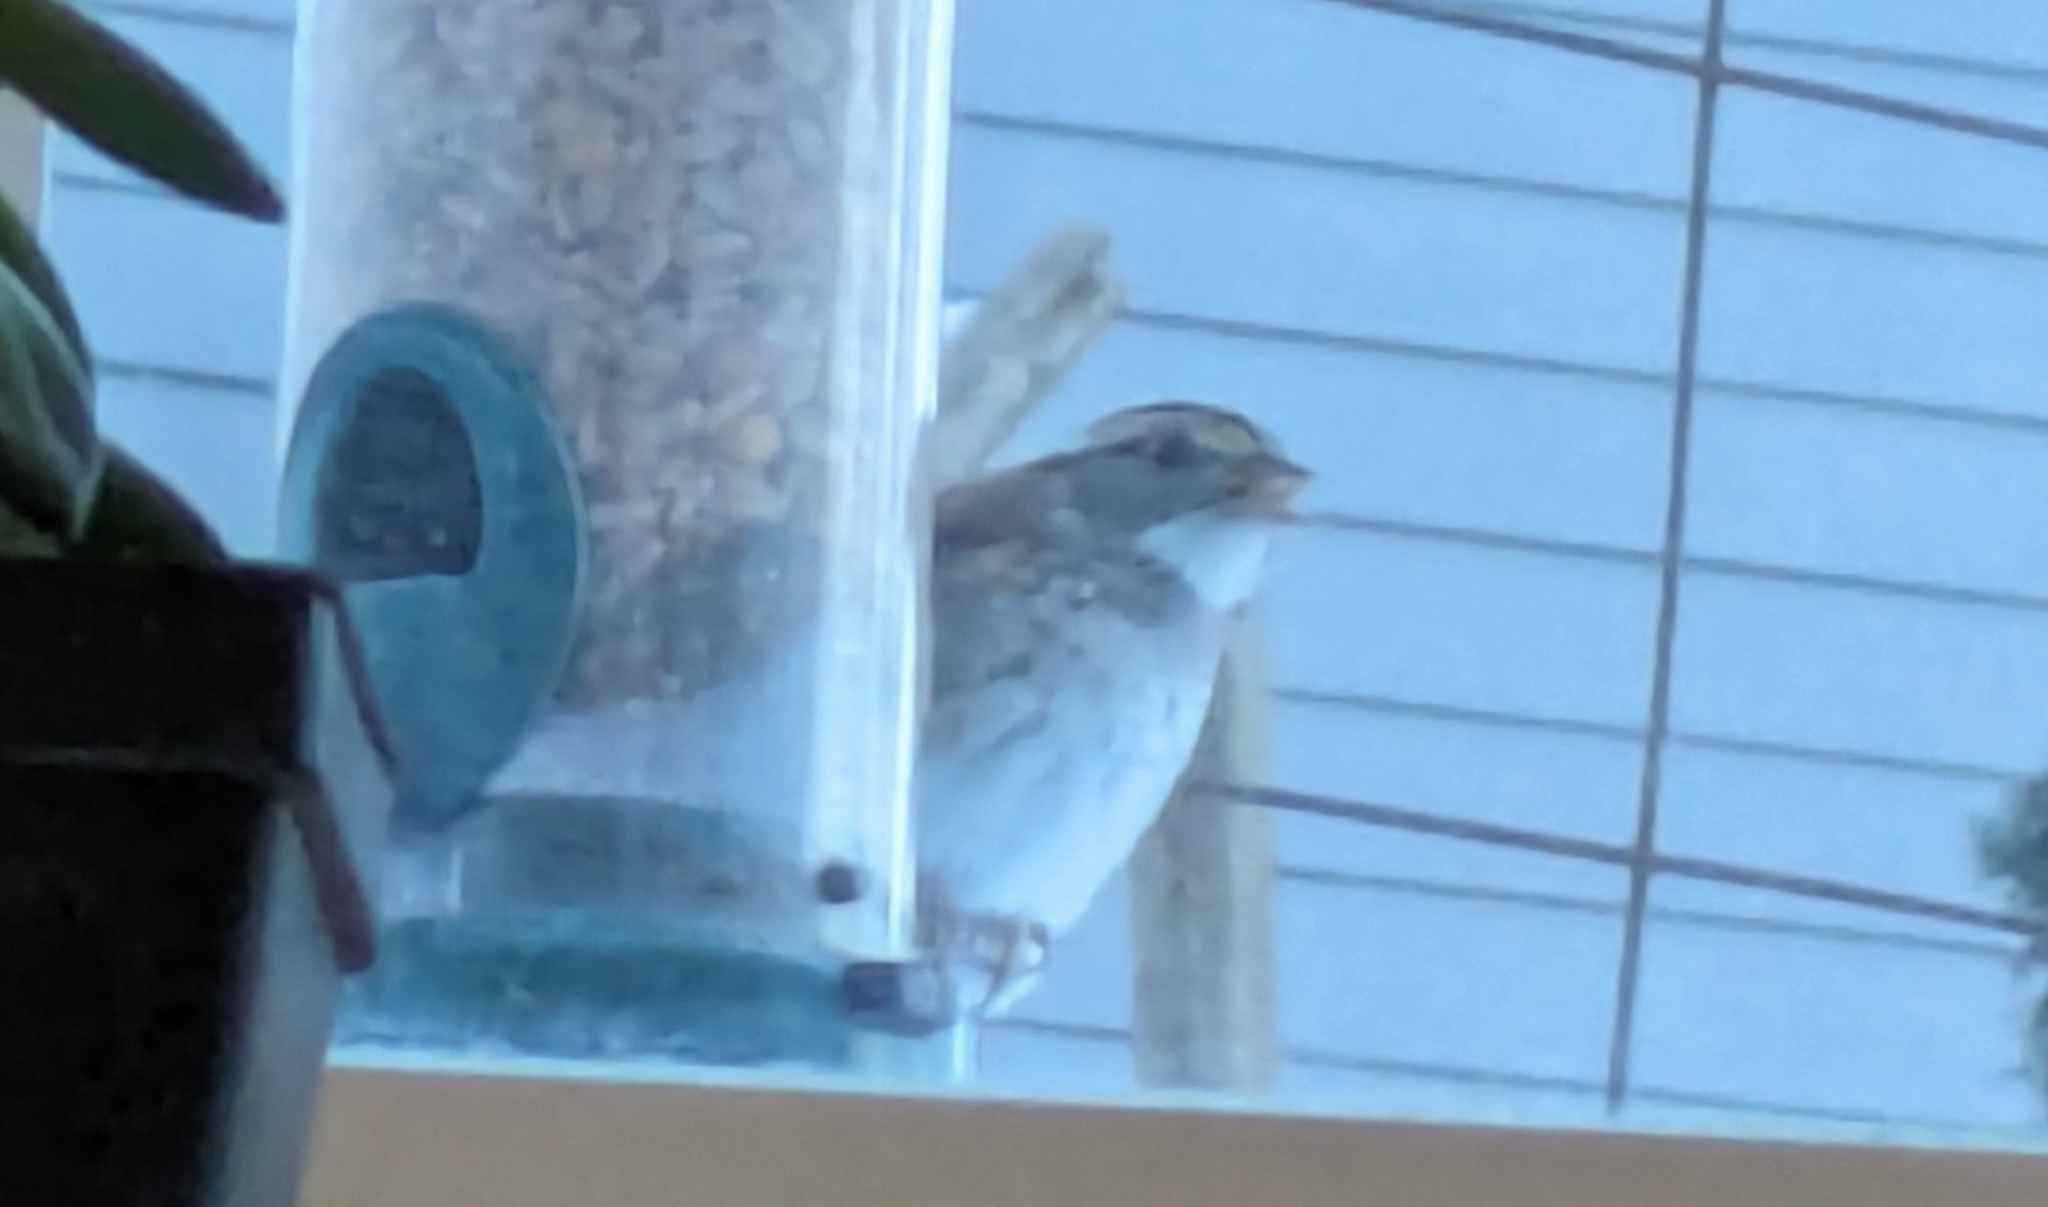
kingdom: Animalia
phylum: Chordata
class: Aves
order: Passeriformes
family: Passerellidae
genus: Zonotrichia
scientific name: Zonotrichia albicollis
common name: White-throated sparrow
